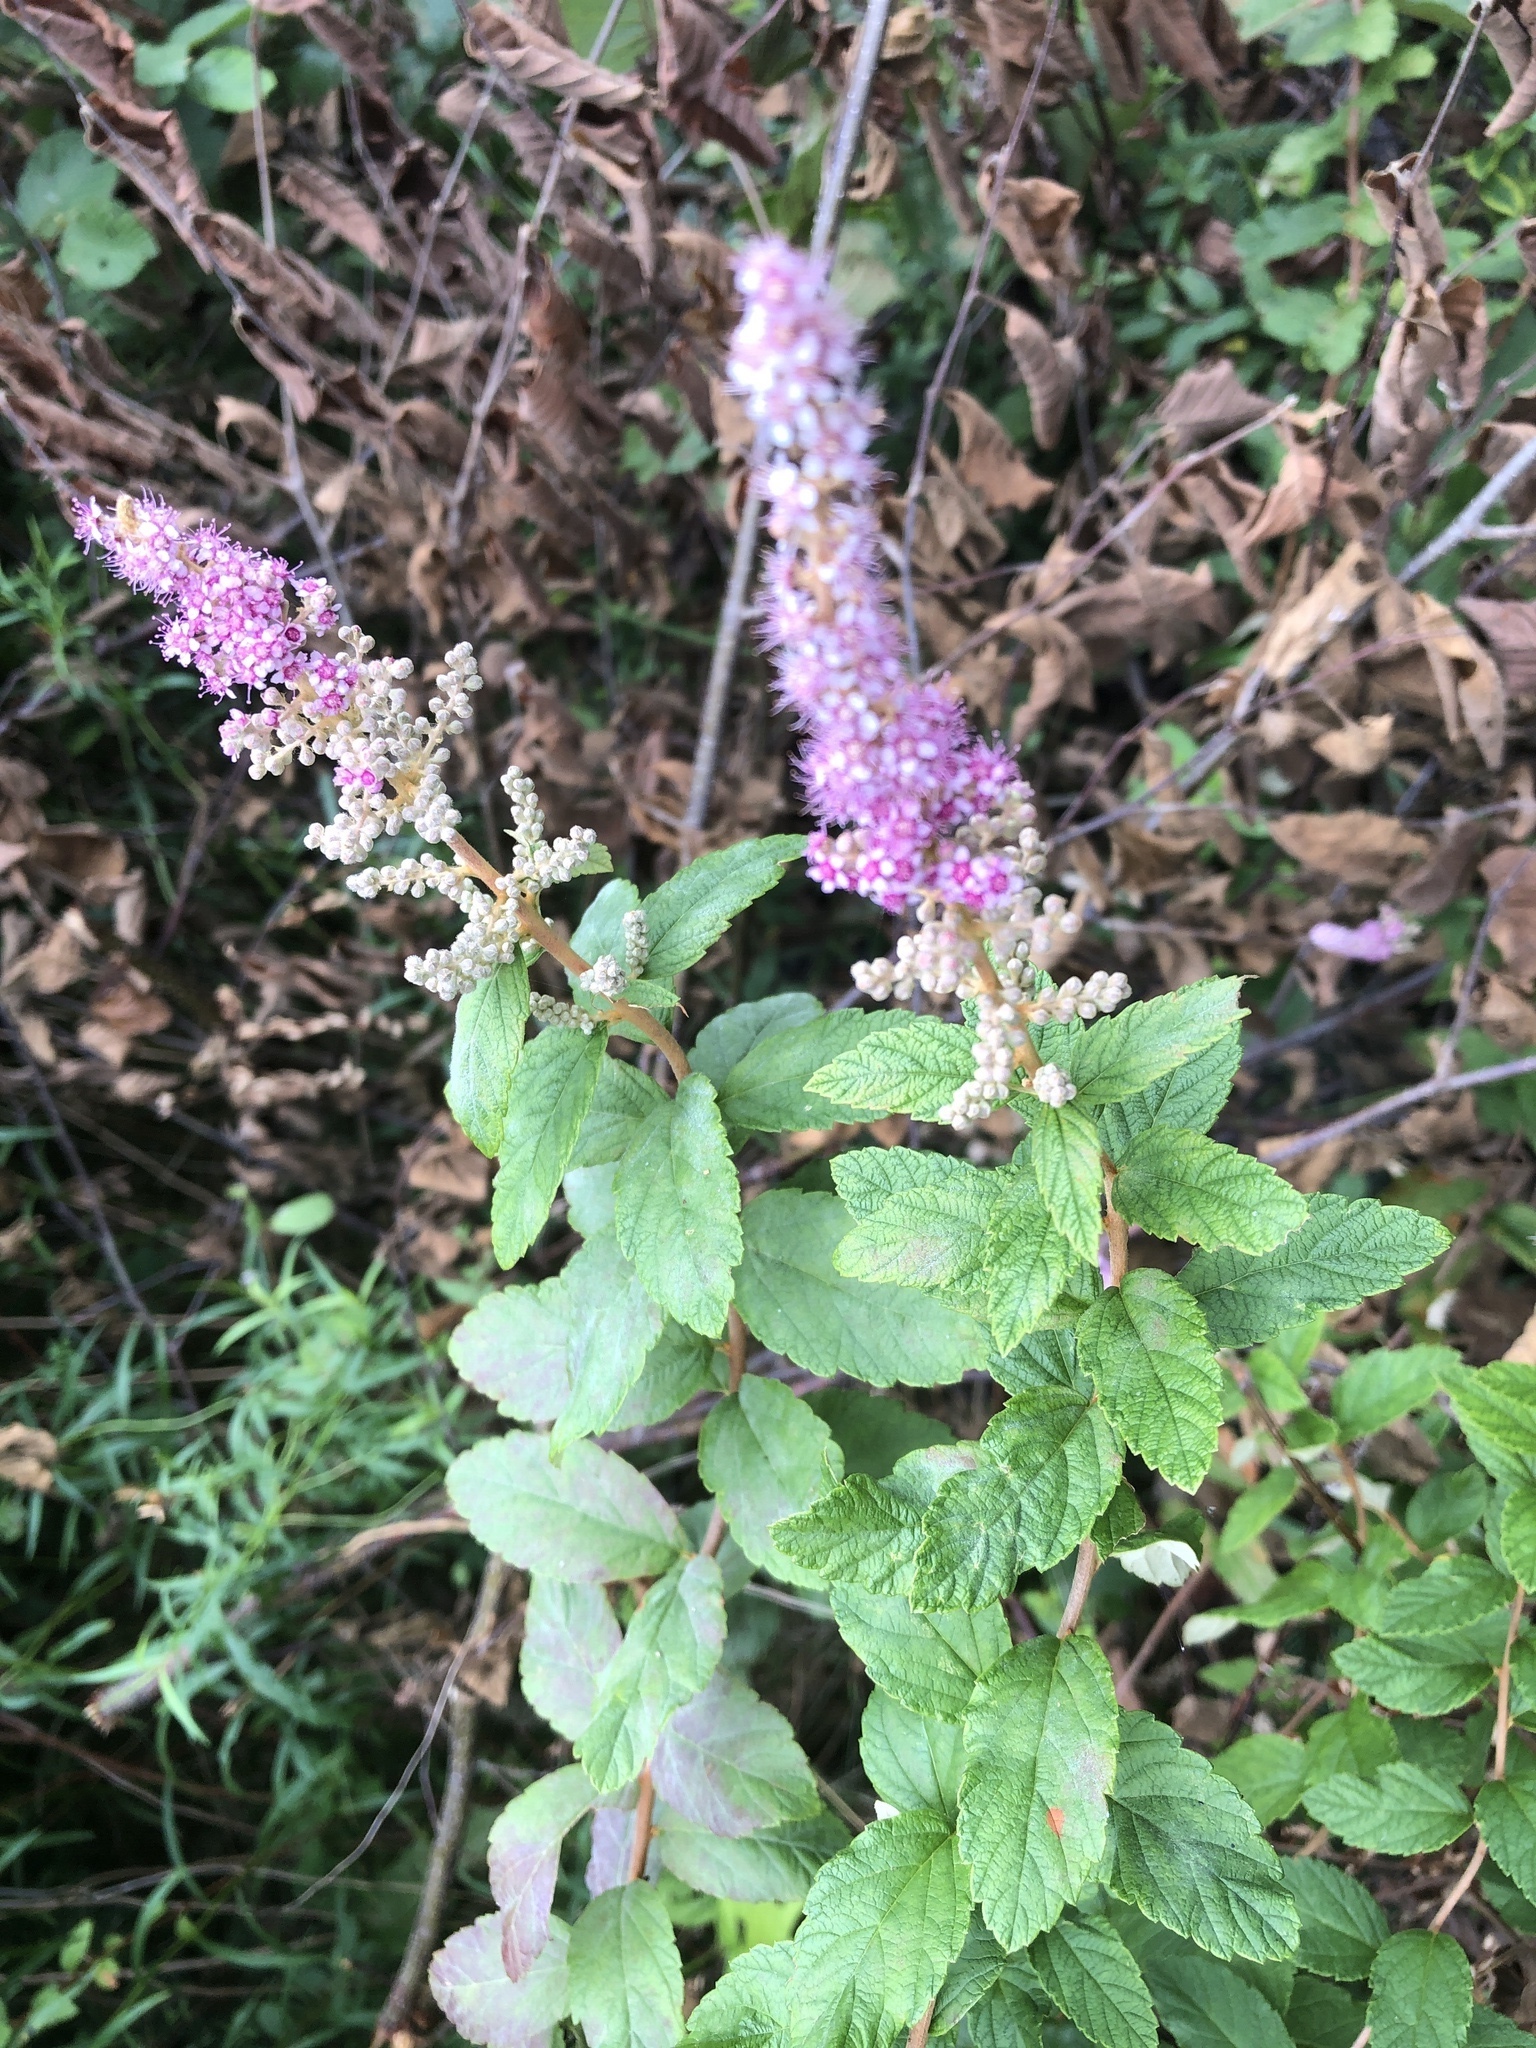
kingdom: Plantae
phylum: Tracheophyta
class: Magnoliopsida
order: Rosales
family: Rosaceae
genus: Spiraea
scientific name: Spiraea tomentosa
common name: Hardhack
